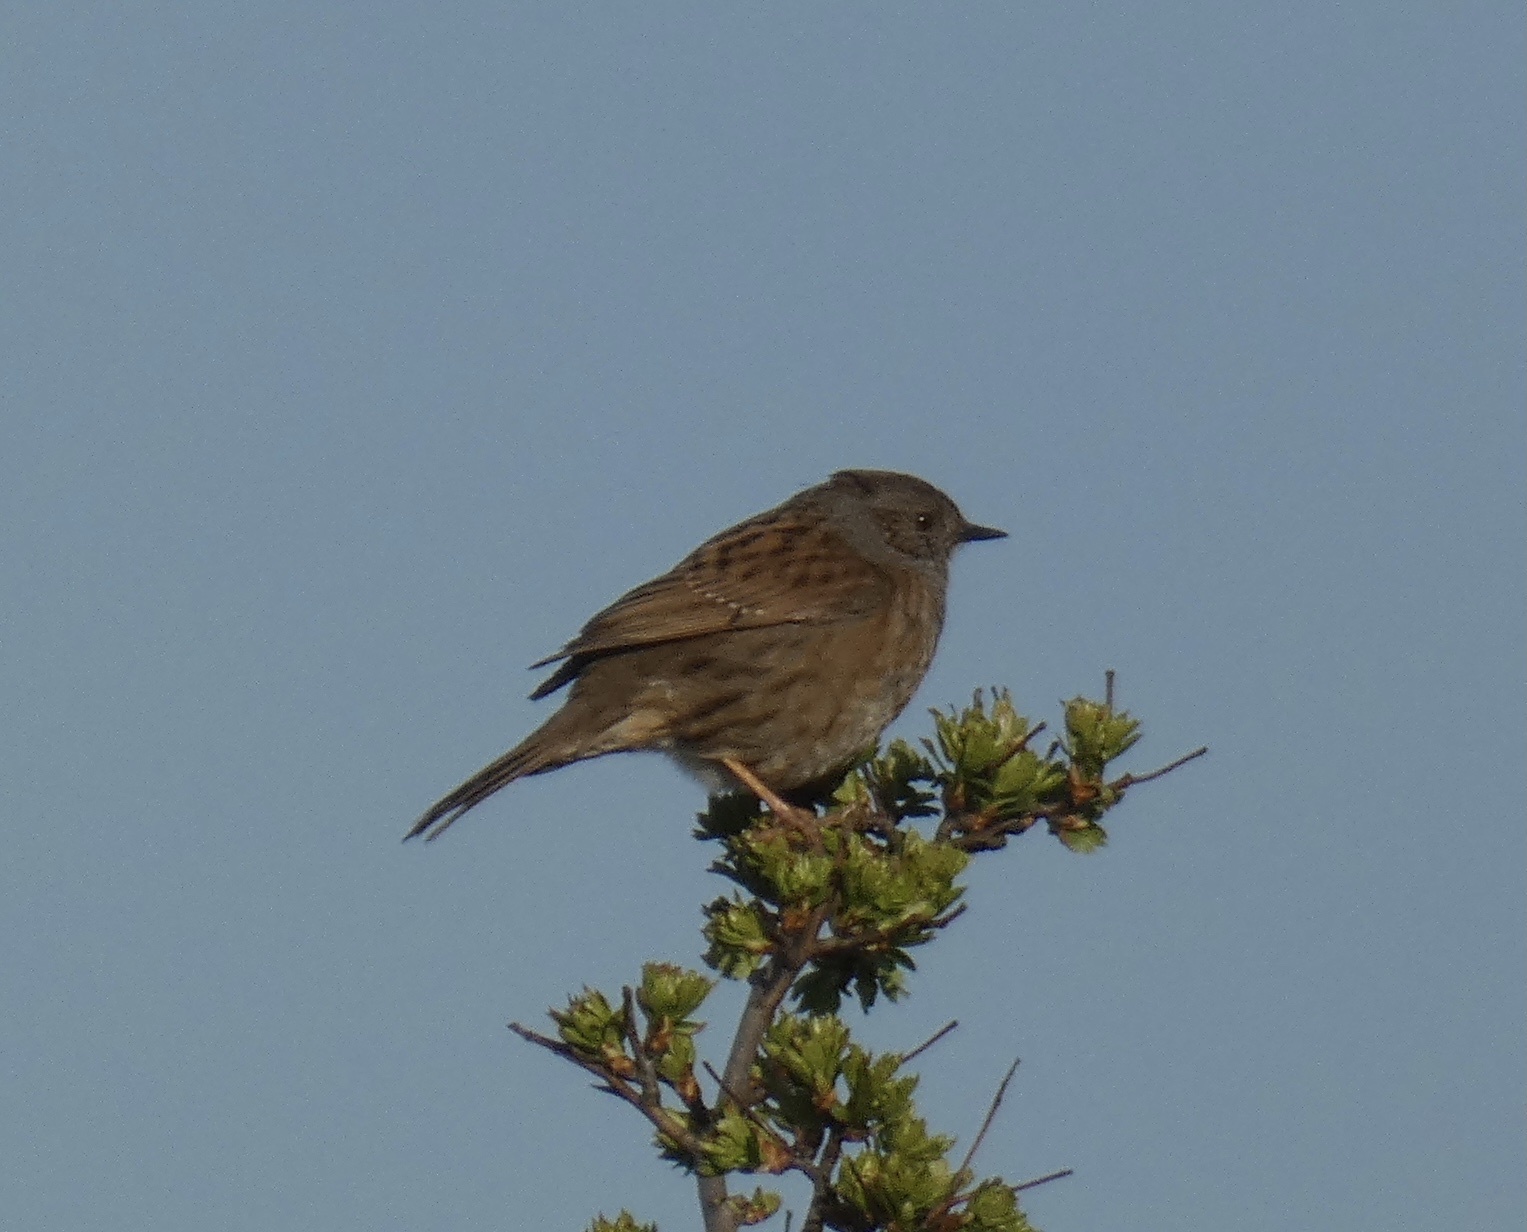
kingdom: Animalia
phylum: Chordata
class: Aves
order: Passeriformes
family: Prunellidae
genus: Prunella
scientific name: Prunella modularis
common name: Dunnock
